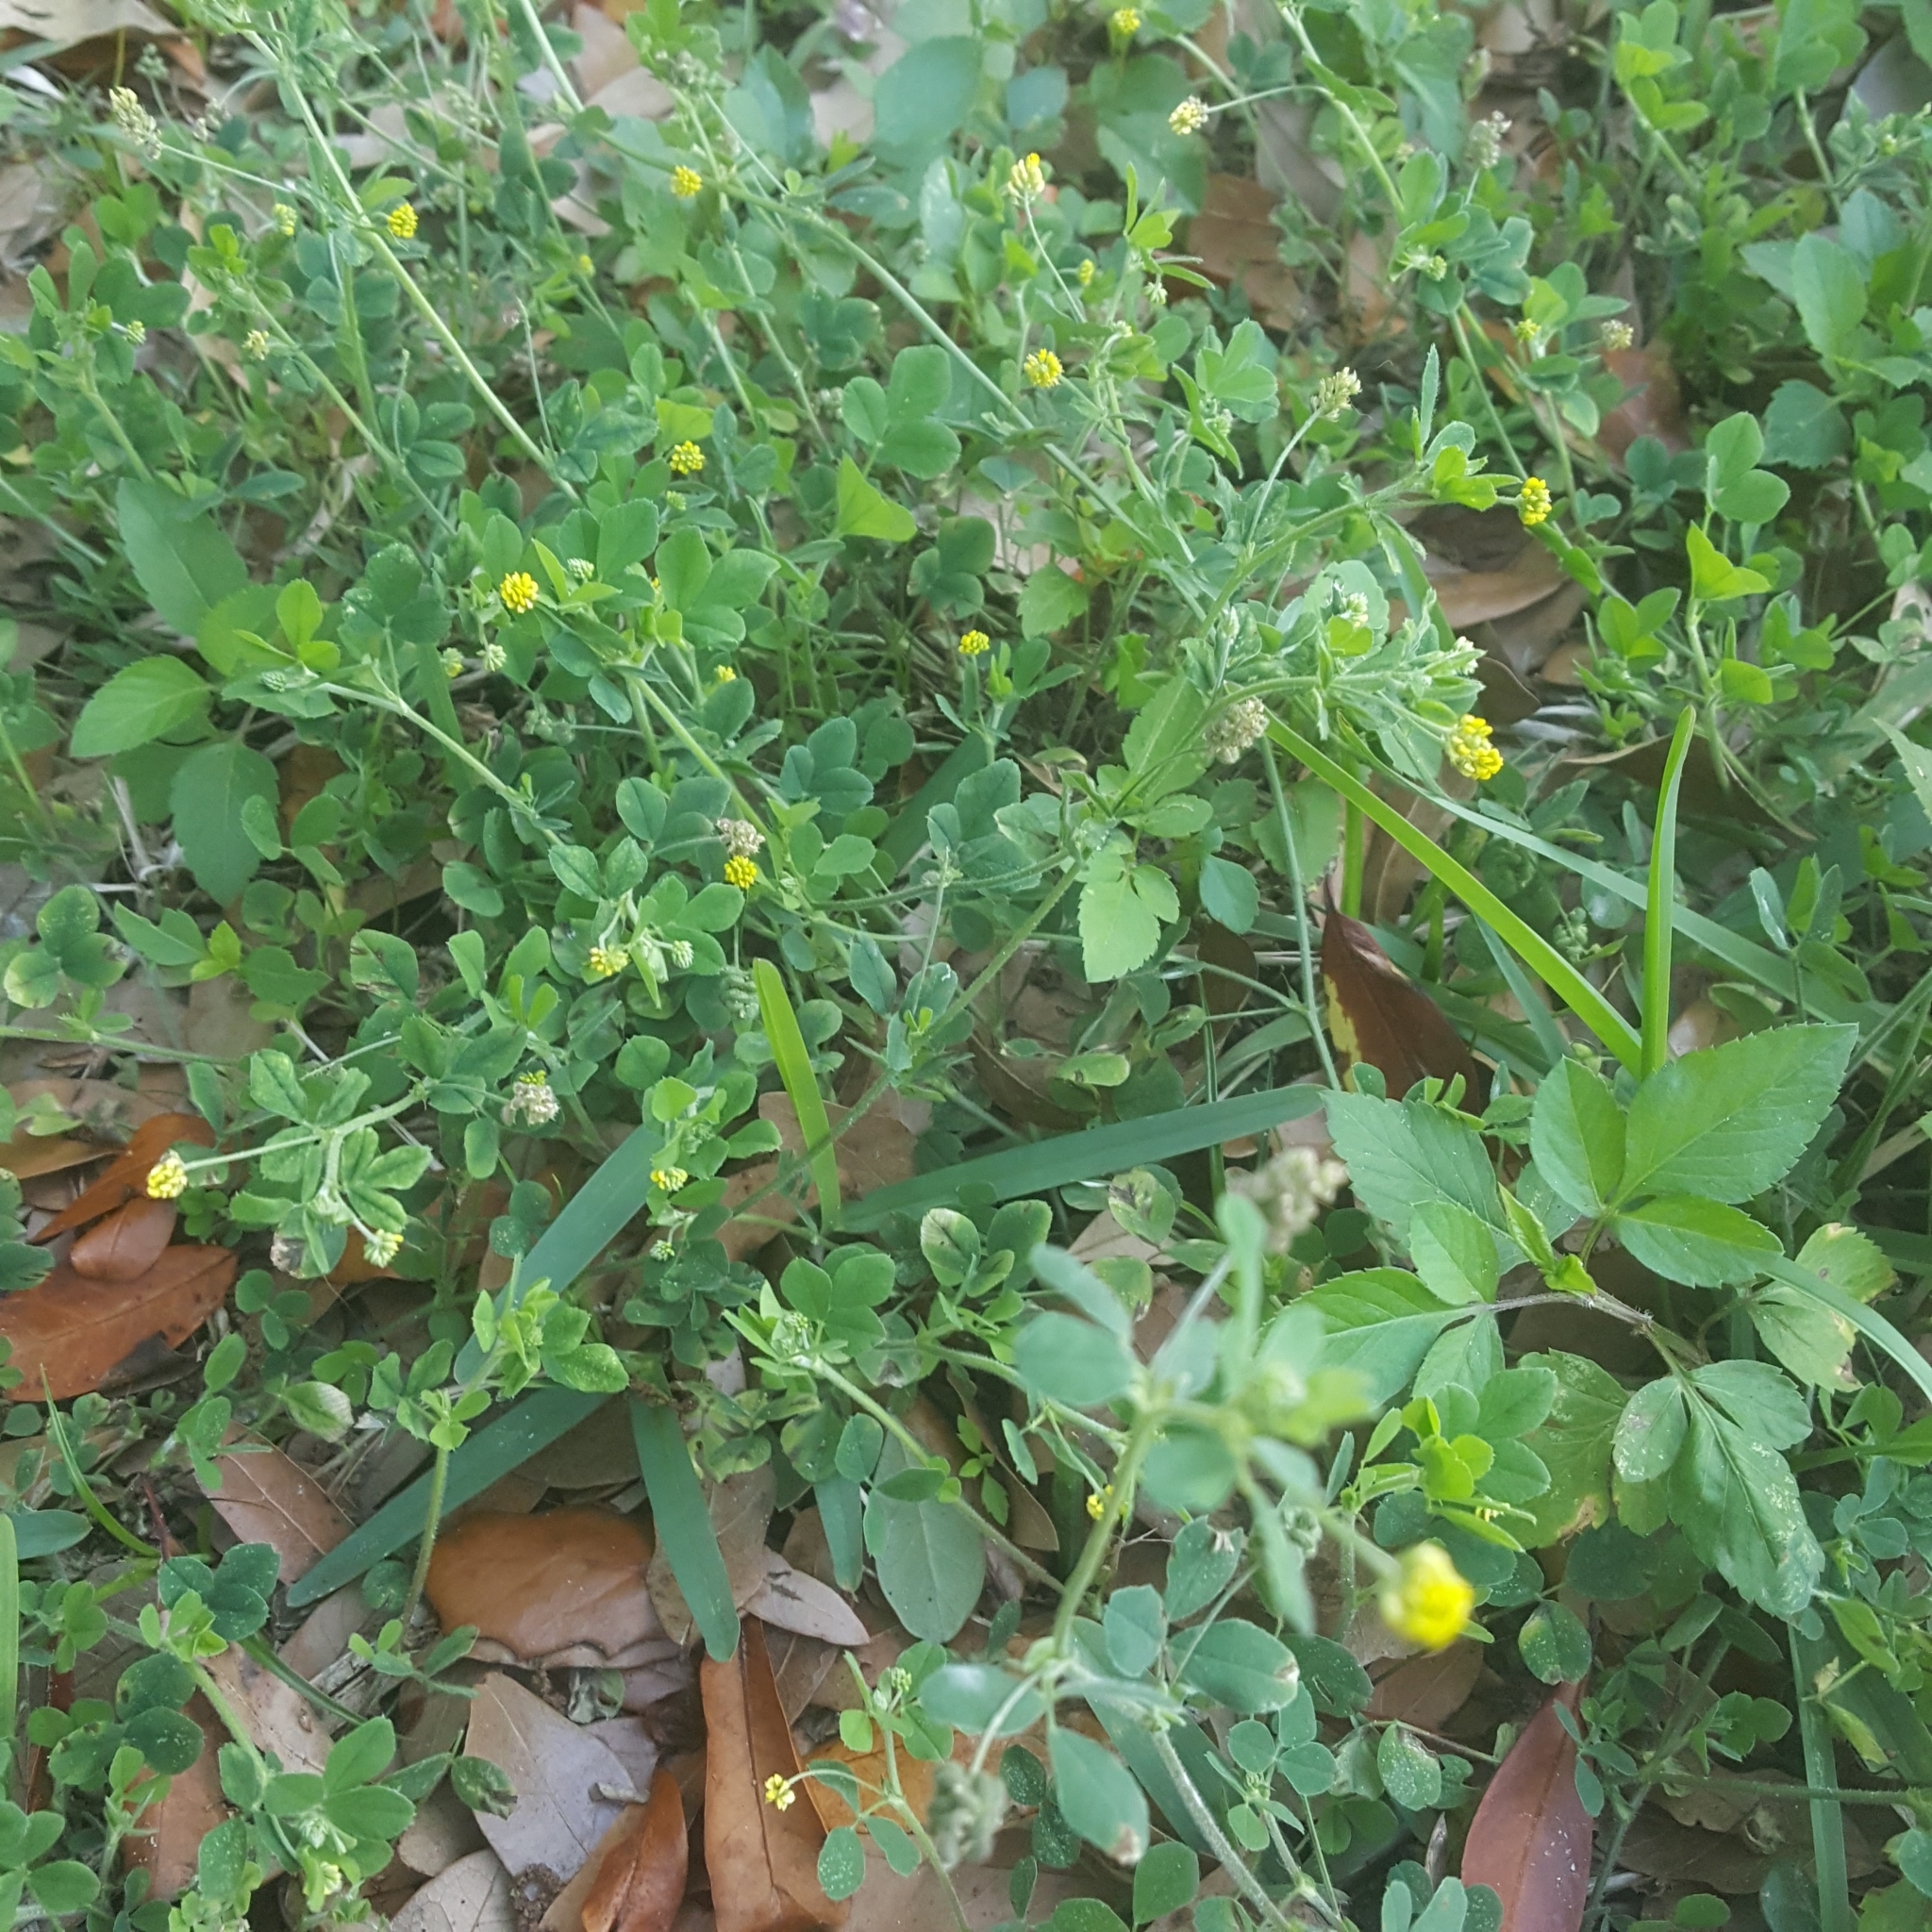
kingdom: Plantae
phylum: Tracheophyta
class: Magnoliopsida
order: Fabales
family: Fabaceae
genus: Medicago
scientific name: Medicago lupulina
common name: Black medick
